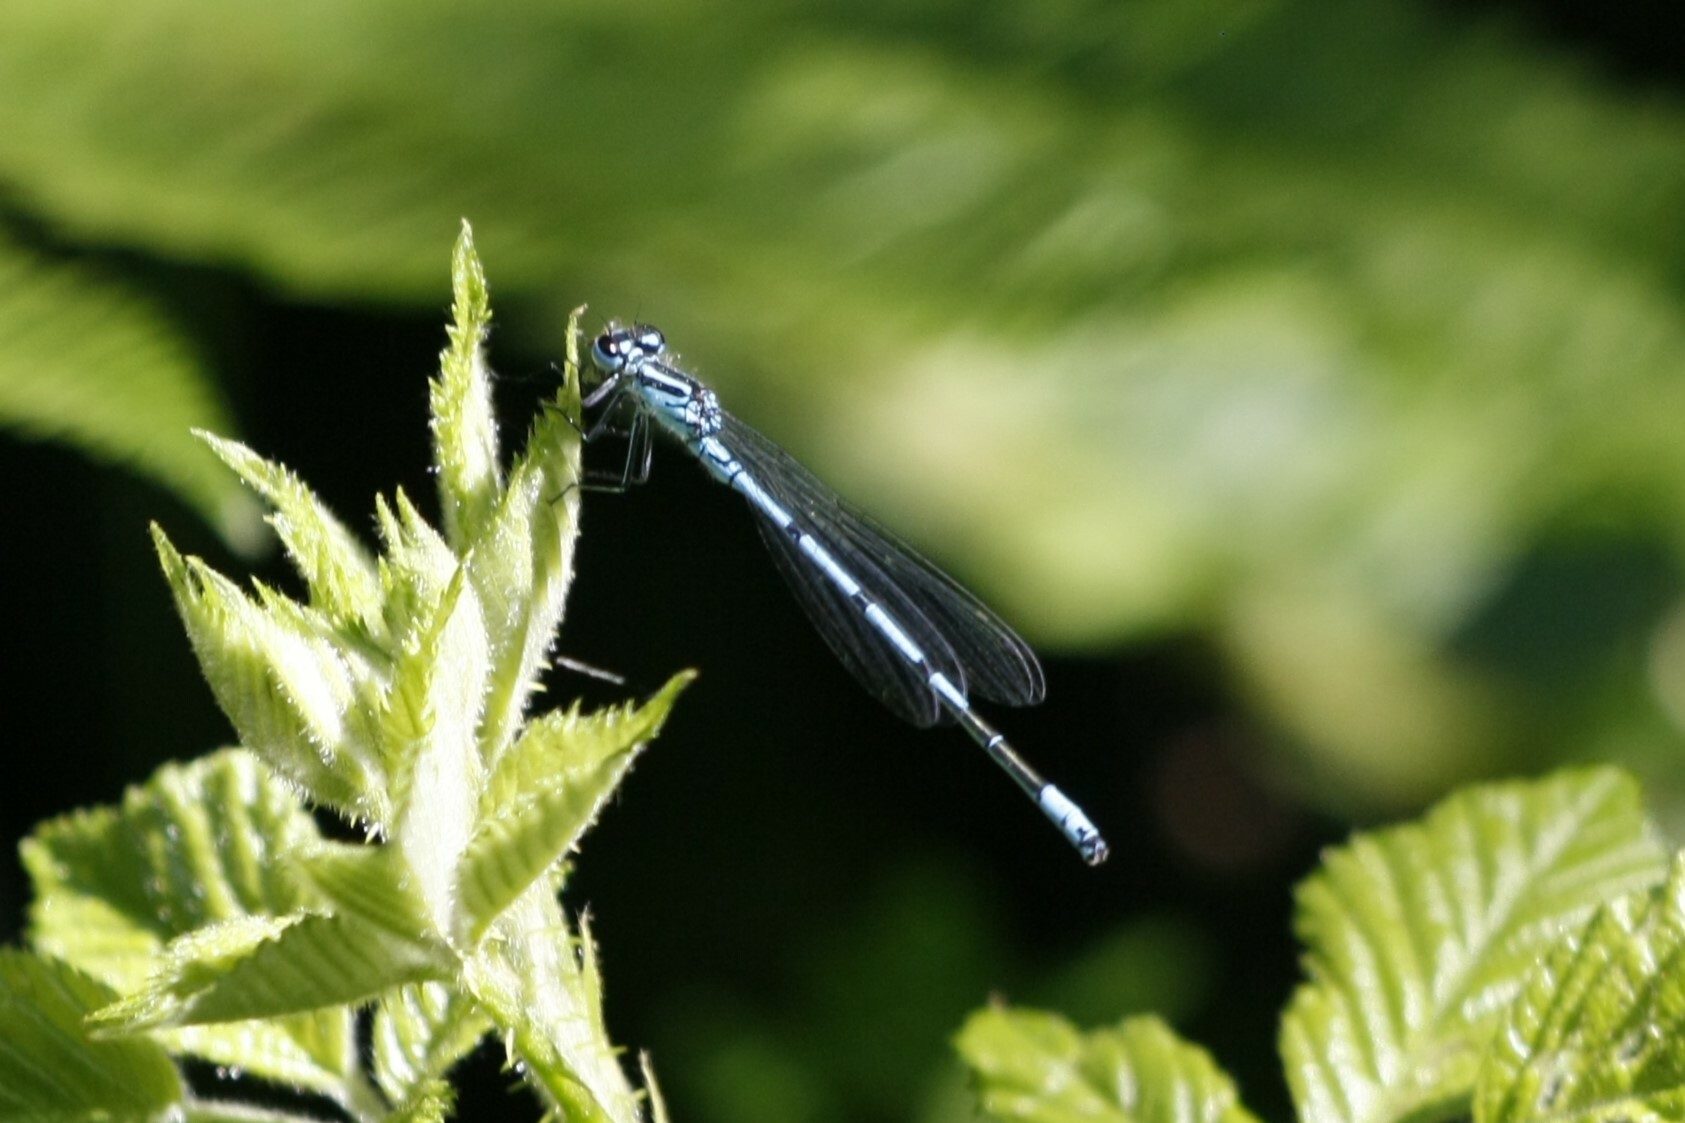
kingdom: Animalia
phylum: Arthropoda
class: Insecta
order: Odonata
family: Coenagrionidae
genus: Coenagrion
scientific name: Coenagrion puella
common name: Azure damselfly
